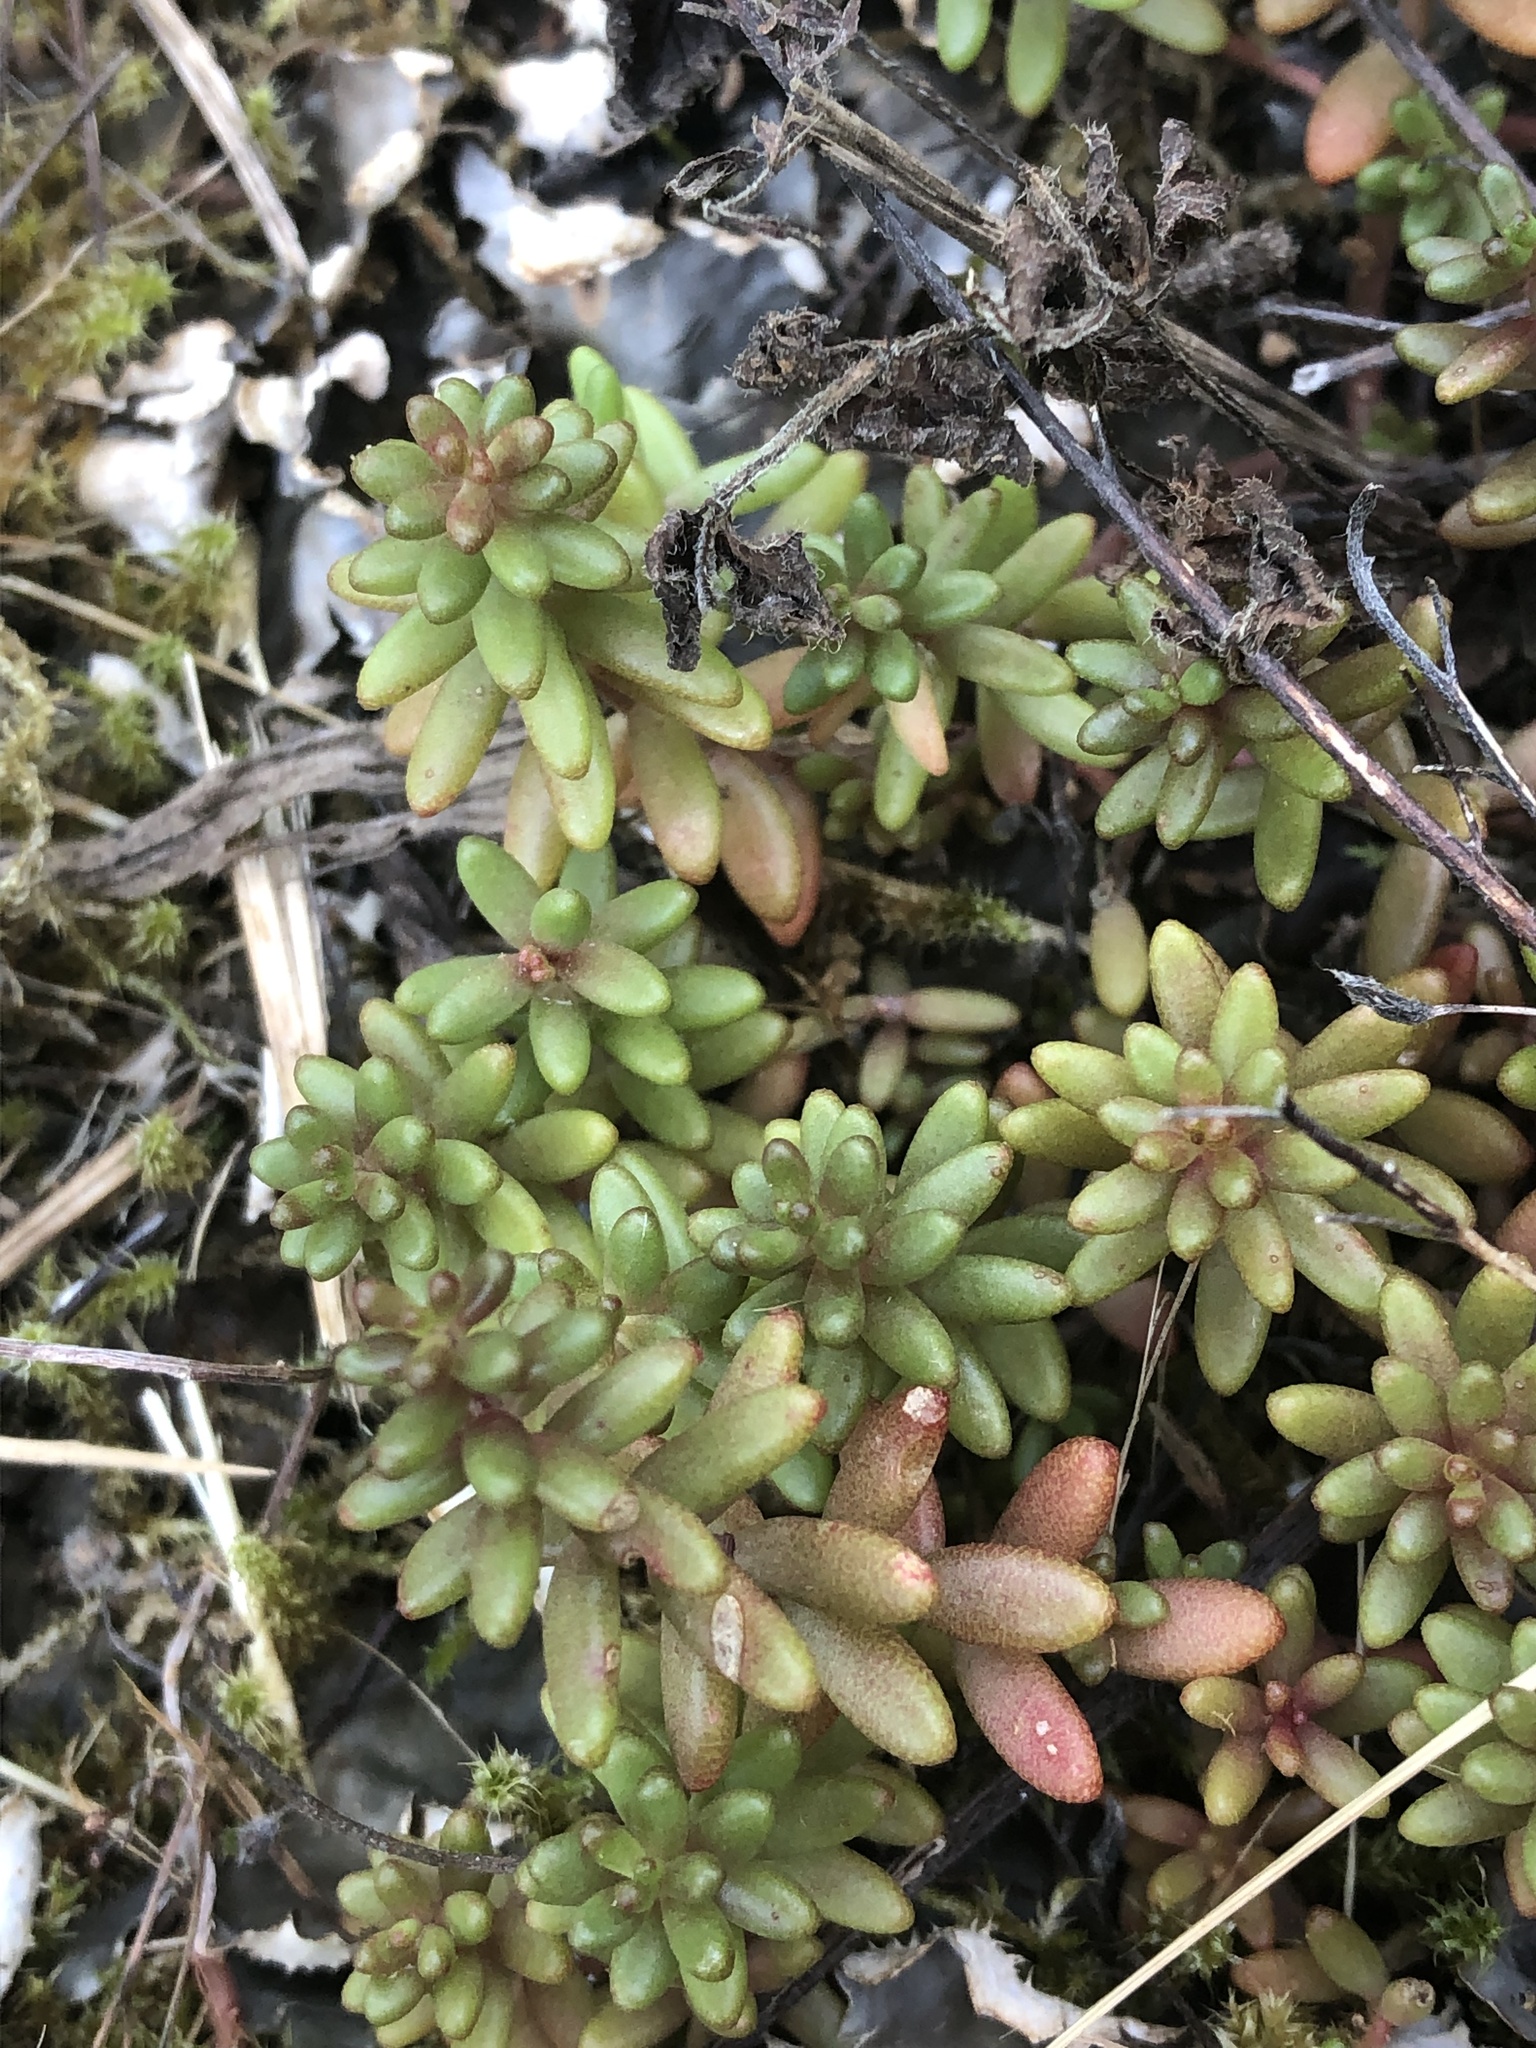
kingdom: Plantae
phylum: Tracheophyta
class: Magnoliopsida
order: Saxifragales
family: Crassulaceae
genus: Sedum
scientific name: Sedum album
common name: White stonecrop
